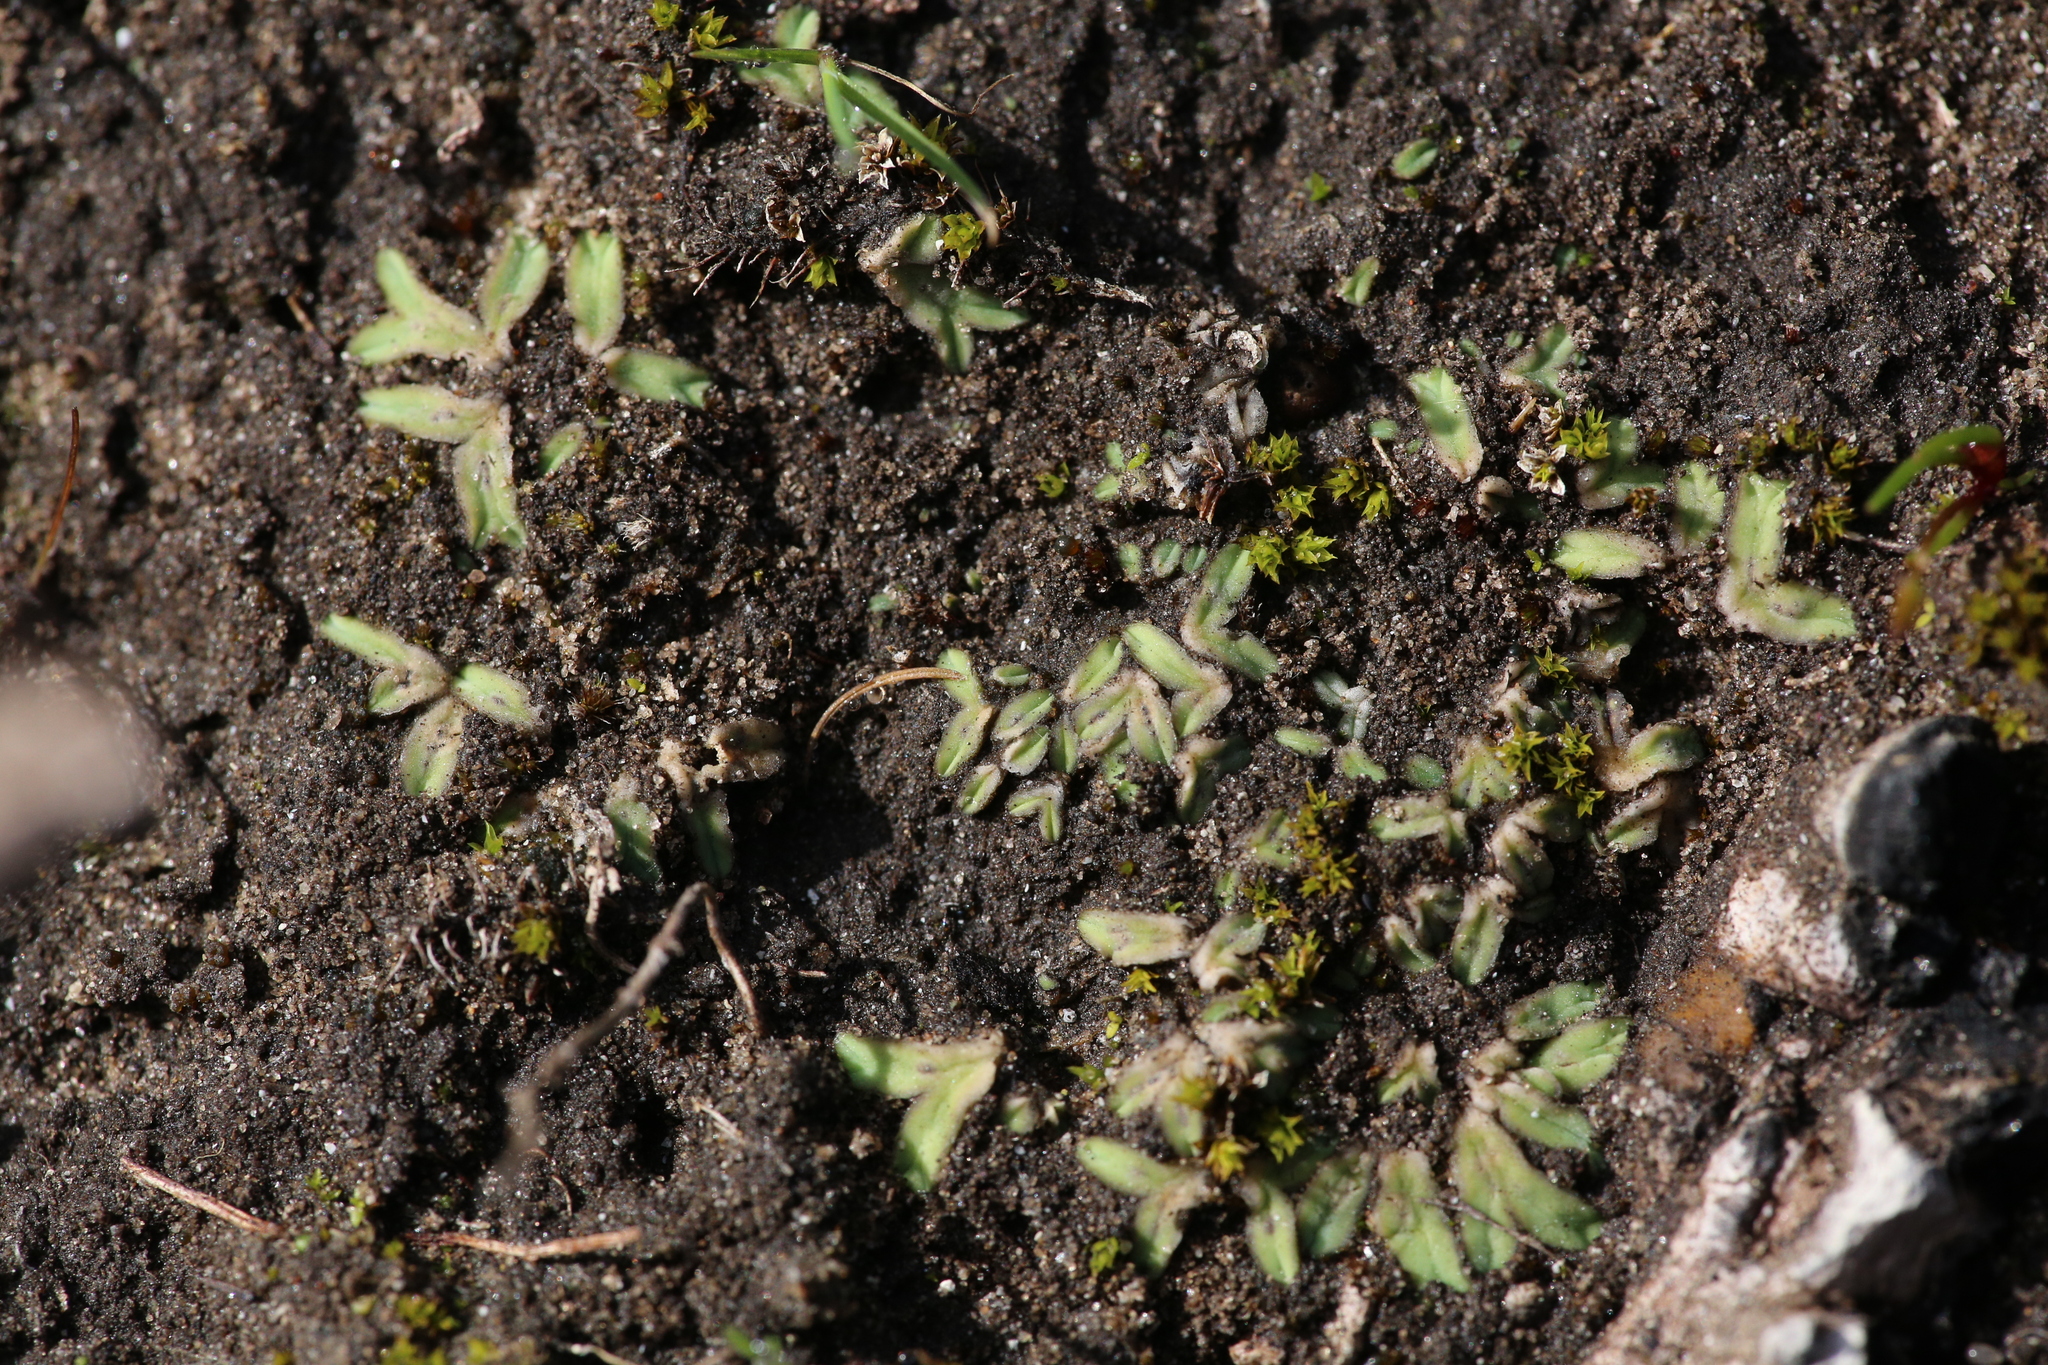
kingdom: Plantae
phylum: Marchantiophyta
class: Marchantiopsida
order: Marchantiales
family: Ricciaceae
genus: Riccia
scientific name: Riccia sorocarpa
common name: Common crystalwort
